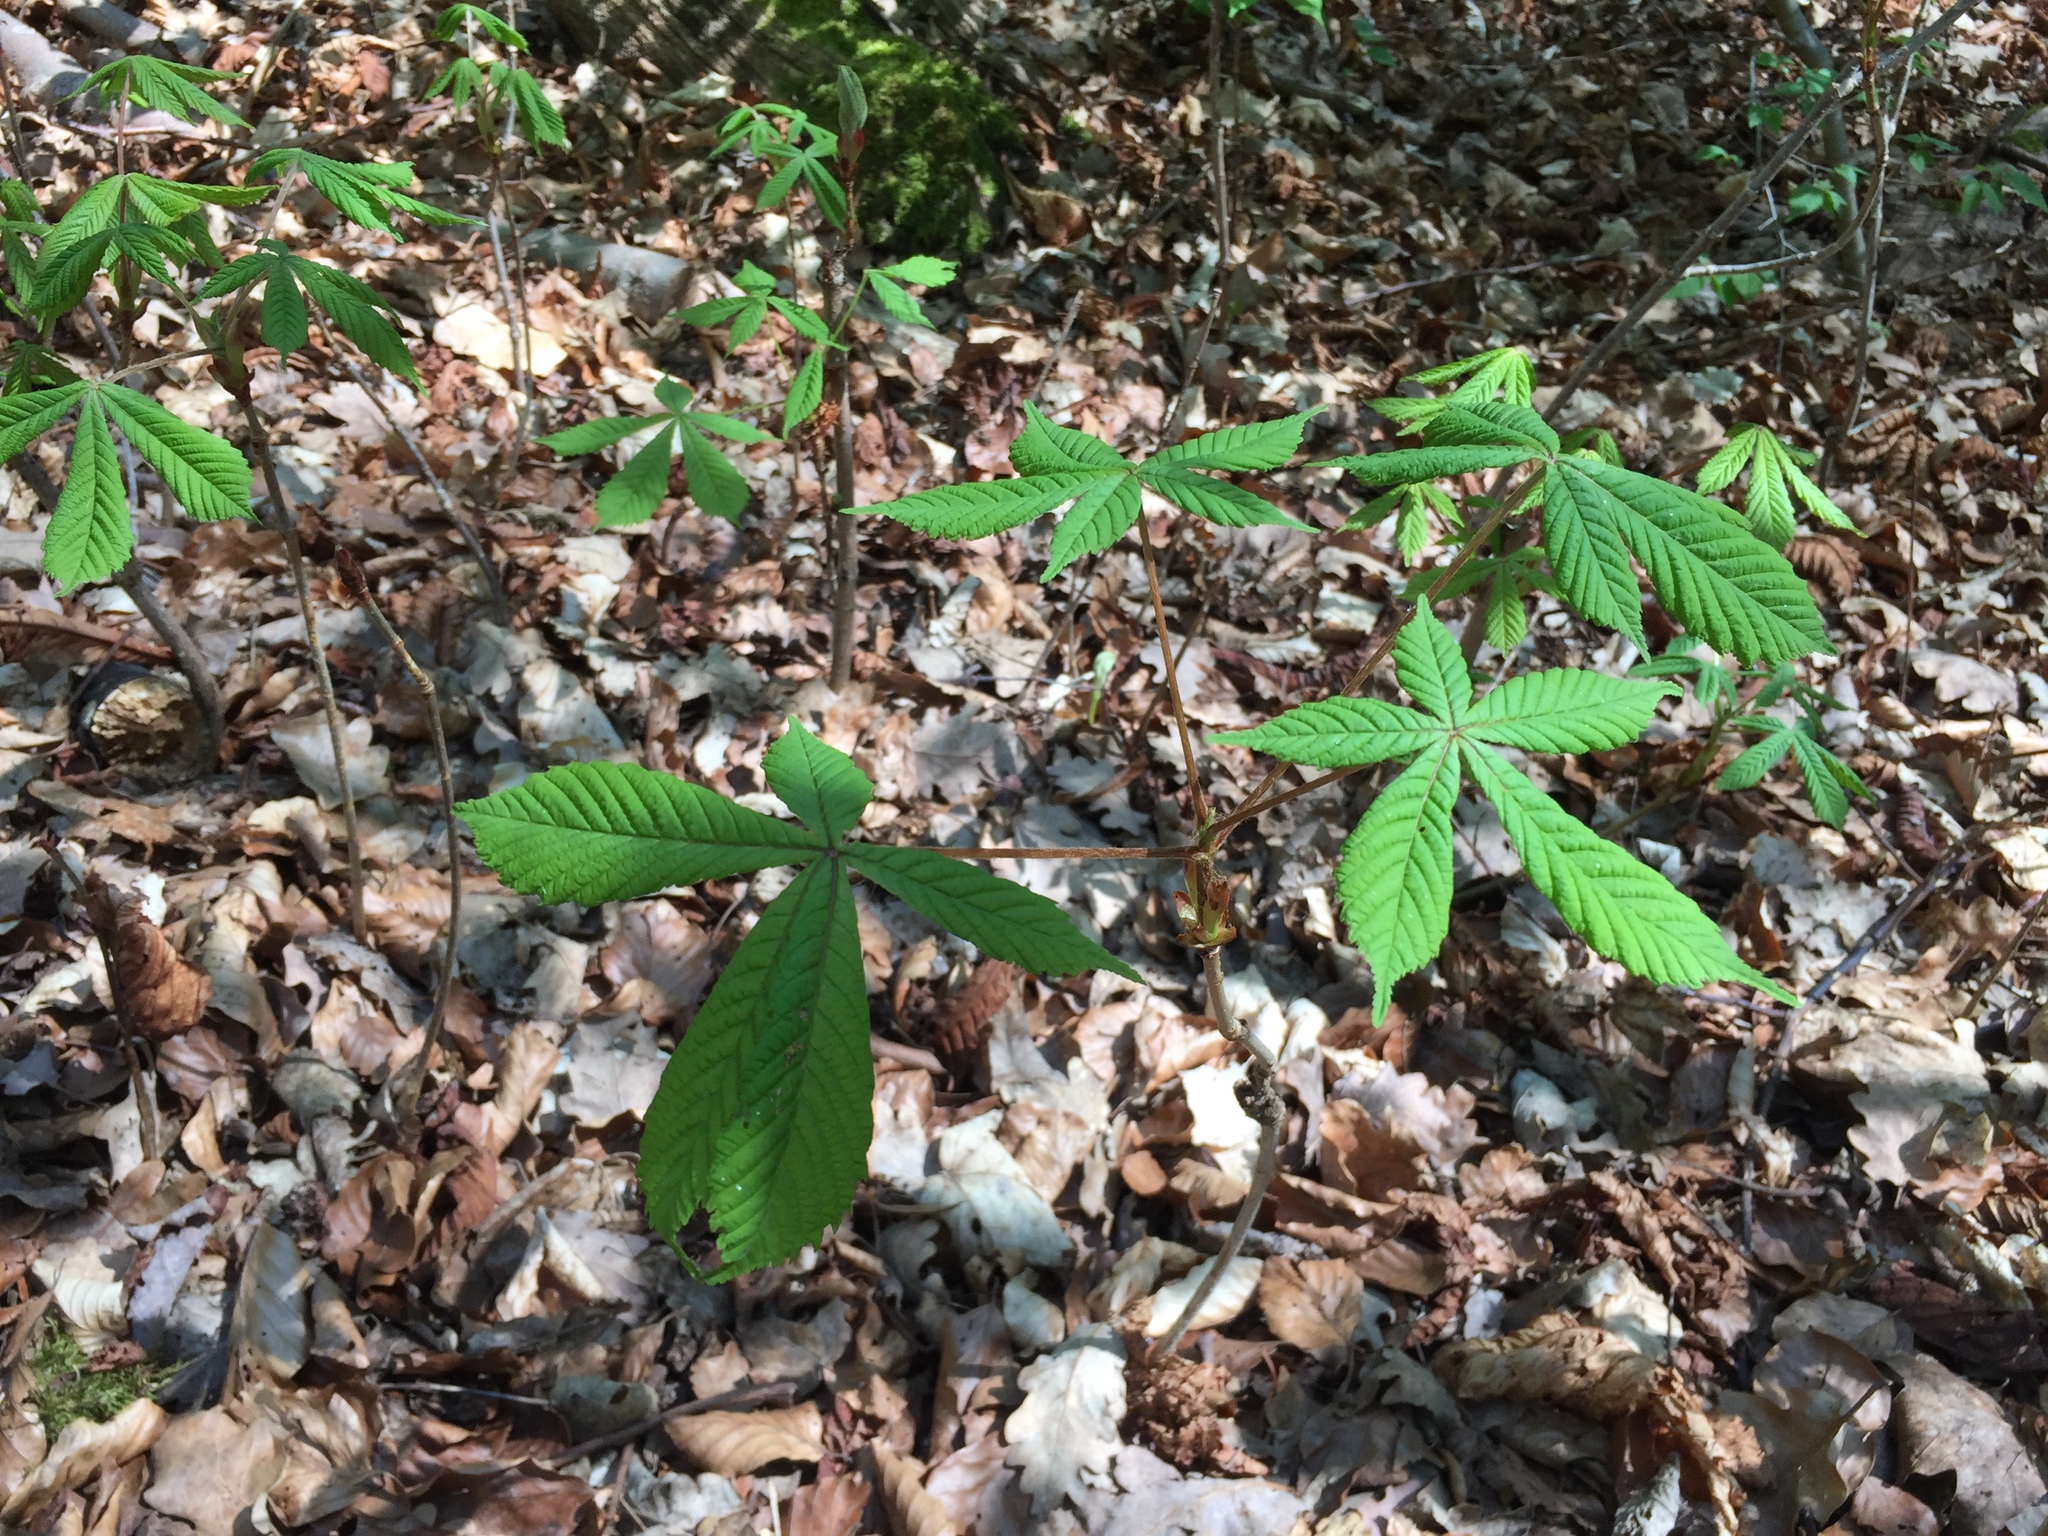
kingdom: Plantae
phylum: Tracheophyta
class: Magnoliopsida
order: Sapindales
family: Sapindaceae
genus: Aesculus
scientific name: Aesculus hippocastanum
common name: Horse-chestnut
